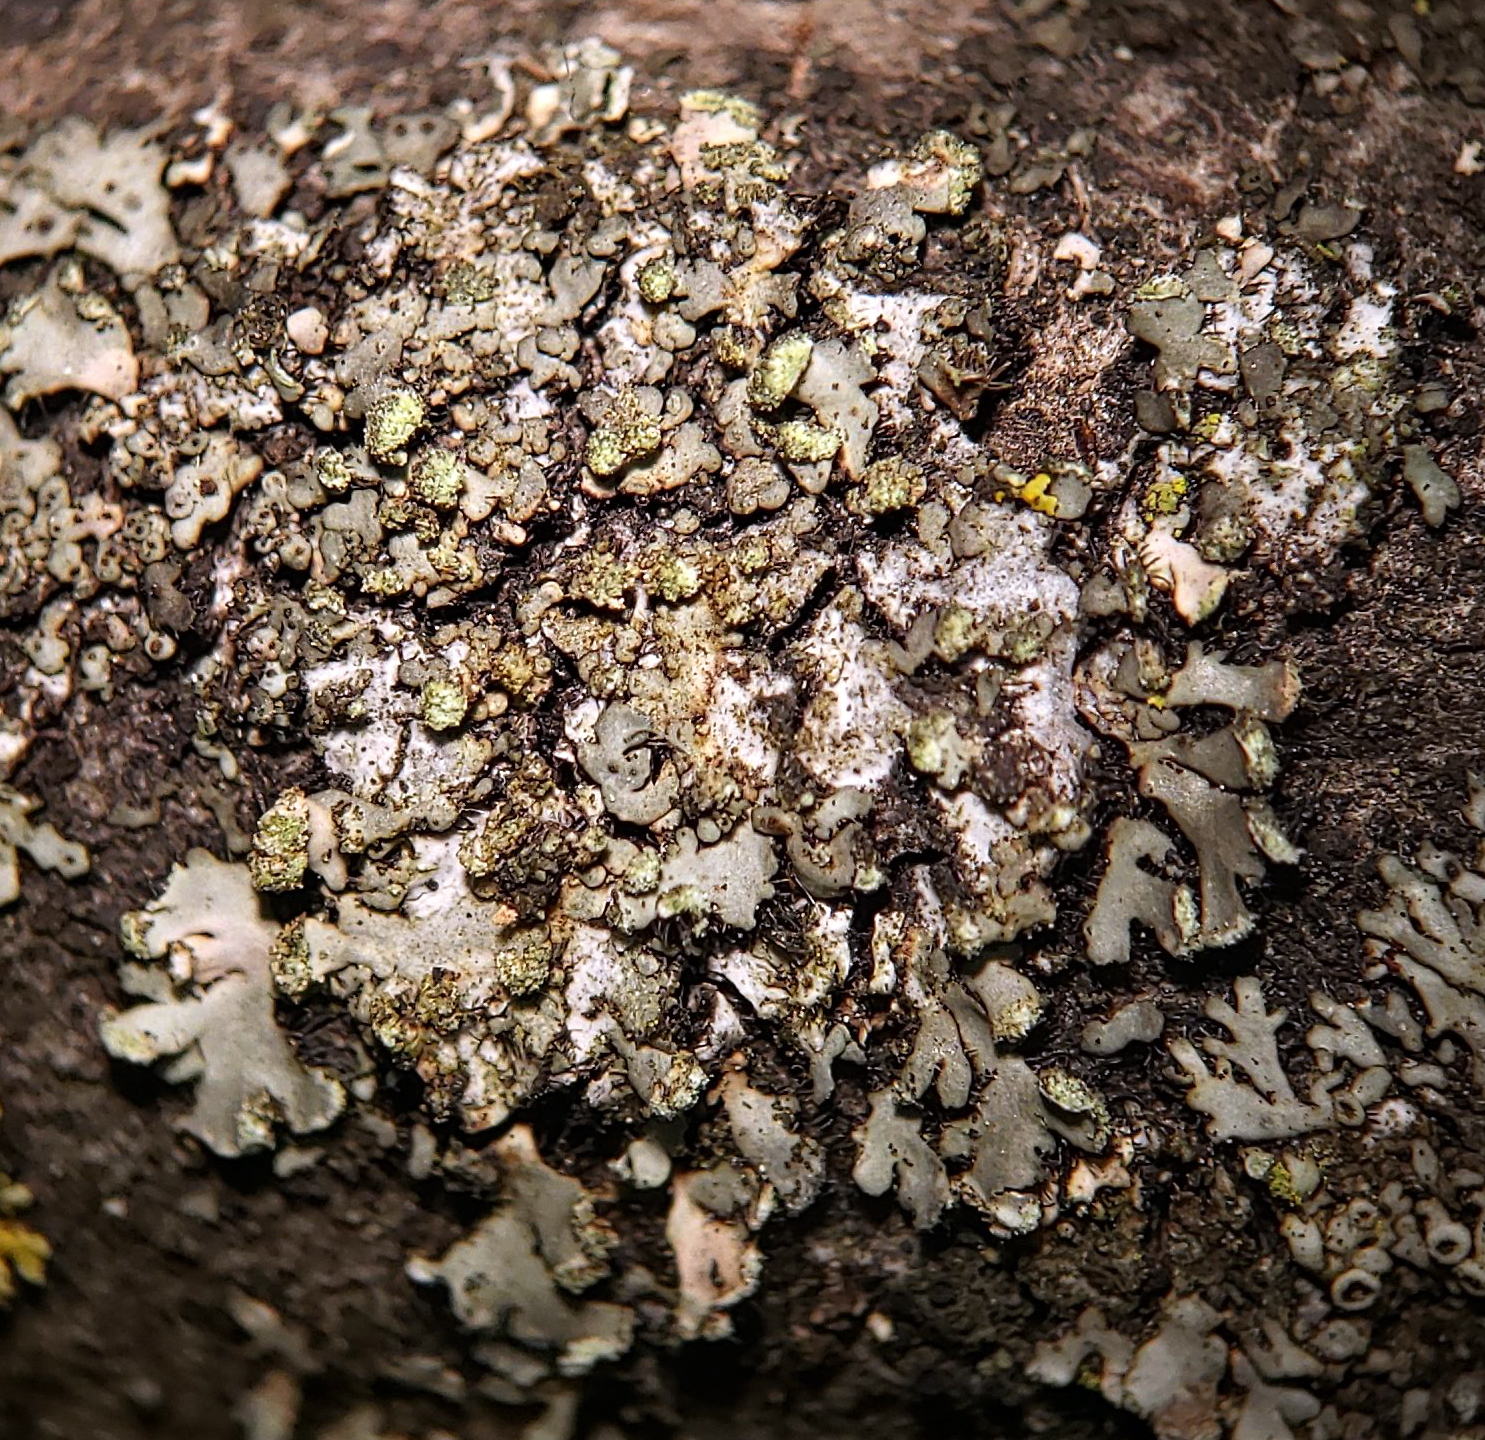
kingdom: Fungi
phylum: Ascomycota
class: Lecanoromycetes
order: Caliciales
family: Physciaceae
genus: Phaeophyscia
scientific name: Phaeophyscia pusilloides
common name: Pom-pom shadow lichen
